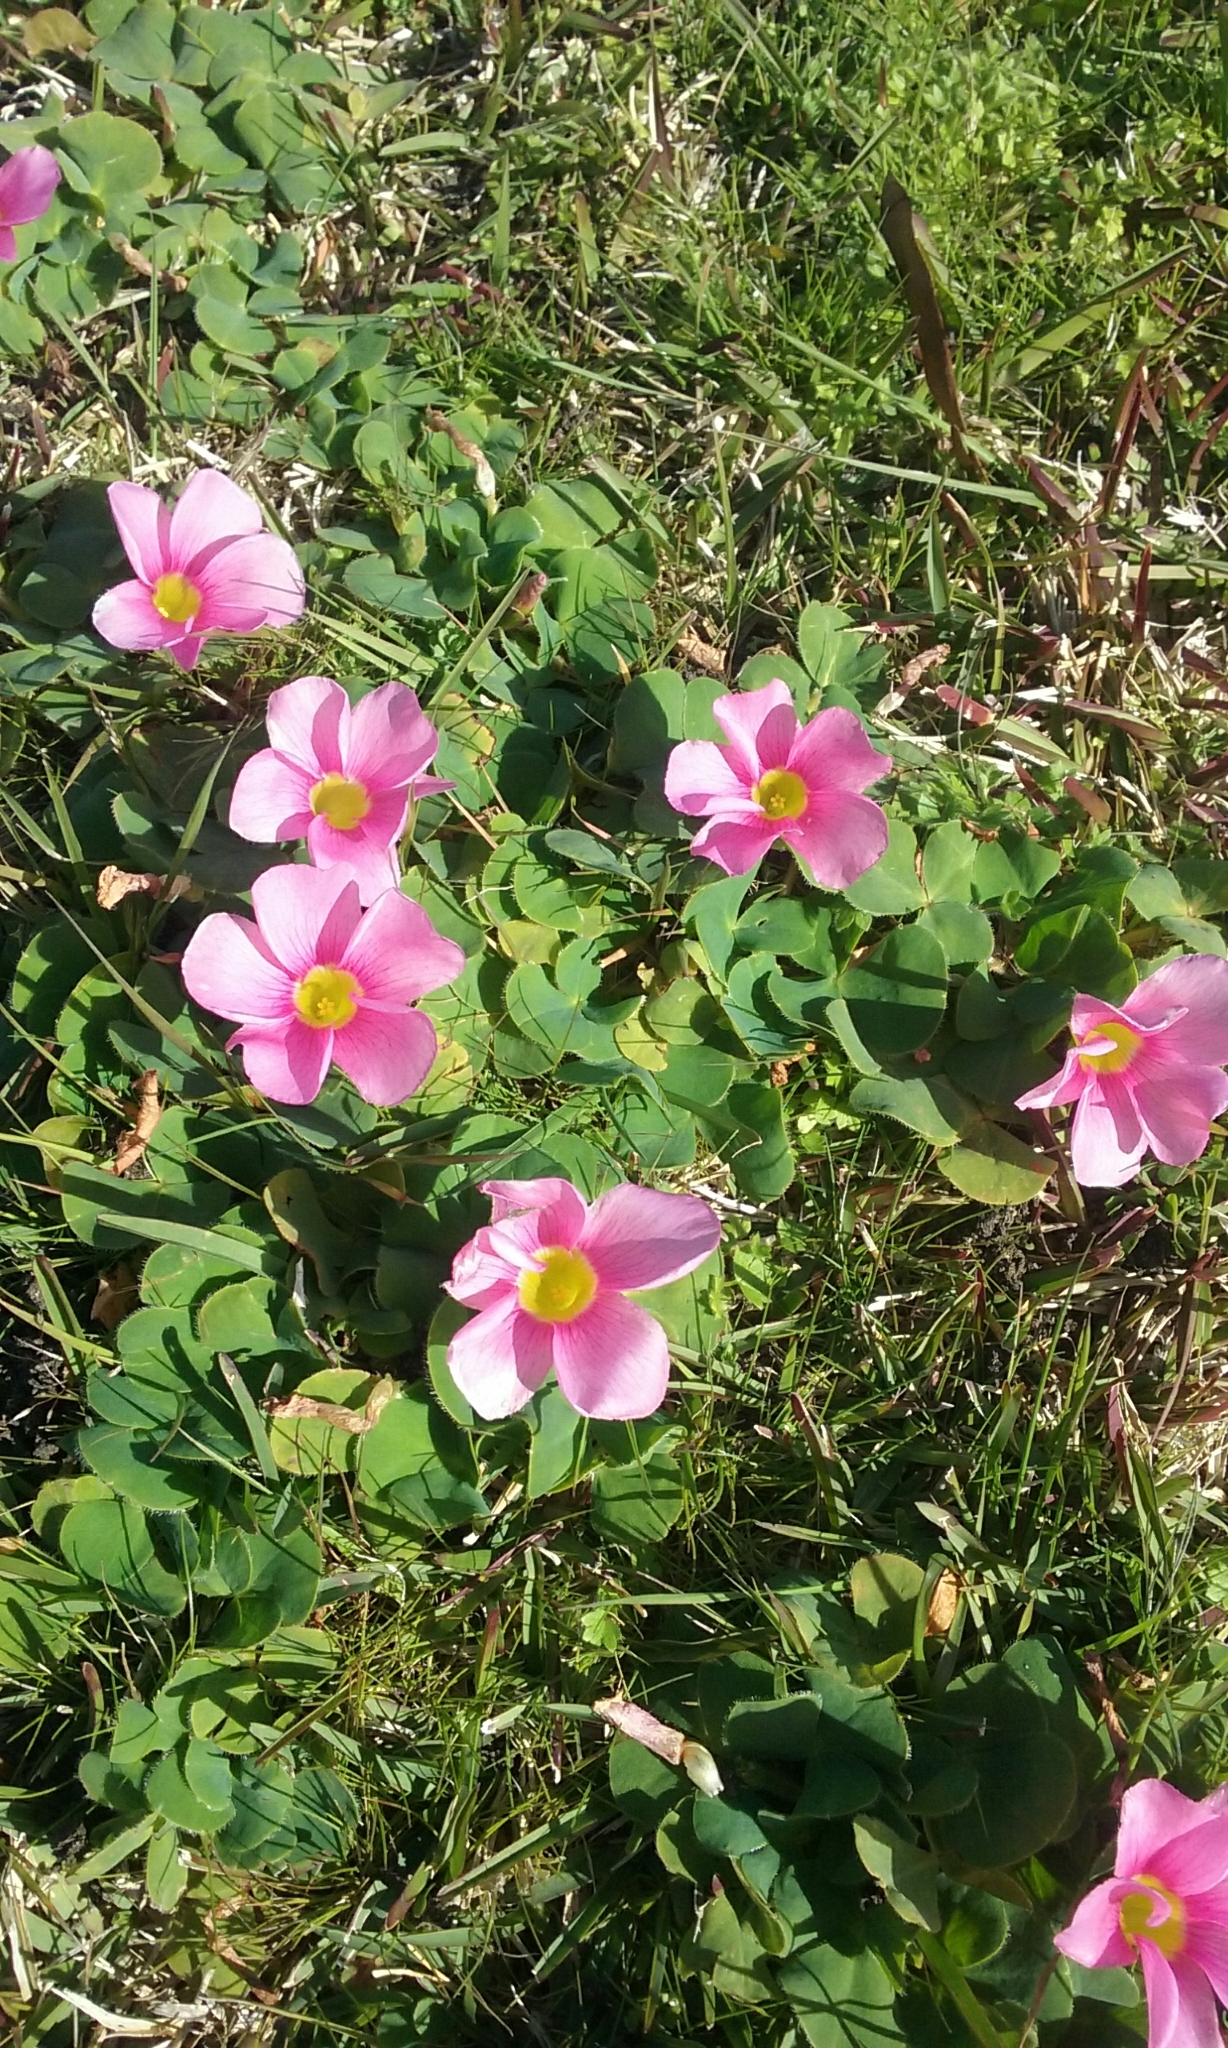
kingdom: Plantae
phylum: Tracheophyta
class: Magnoliopsida
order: Oxalidales
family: Oxalidaceae
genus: Oxalis
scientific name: Oxalis purpurea
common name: Purple woodsorrel
